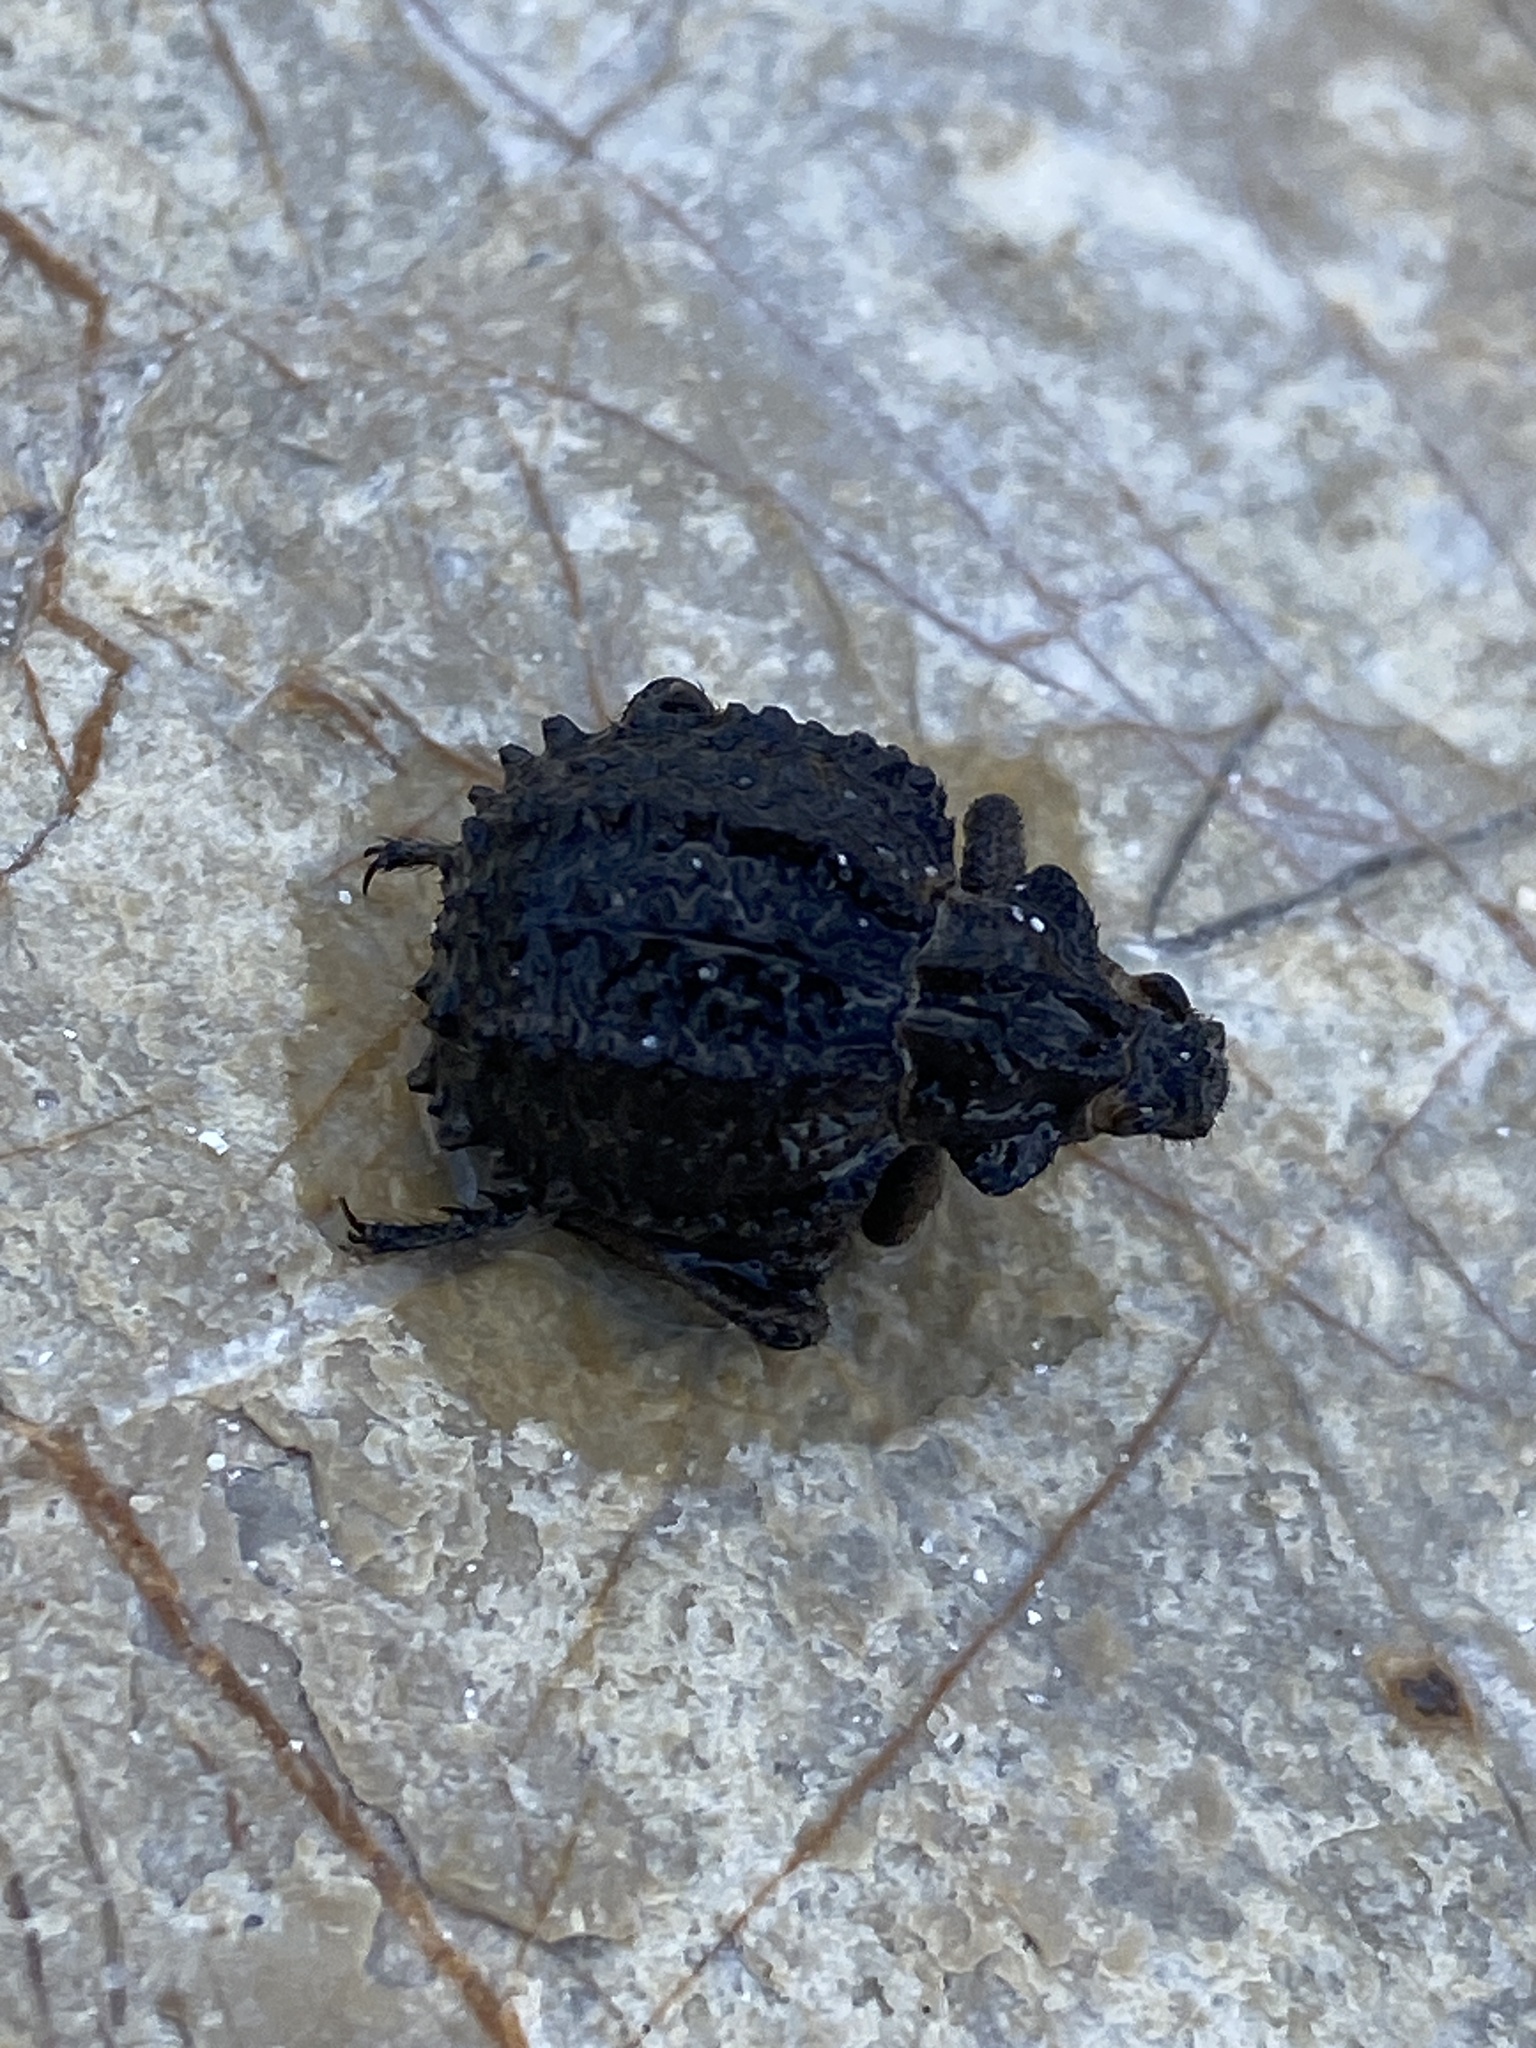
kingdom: Animalia
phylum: Arthropoda
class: Insecta
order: Coleoptera
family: Brachyceridae
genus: Brachycerus
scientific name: Brachycerus balearicus
